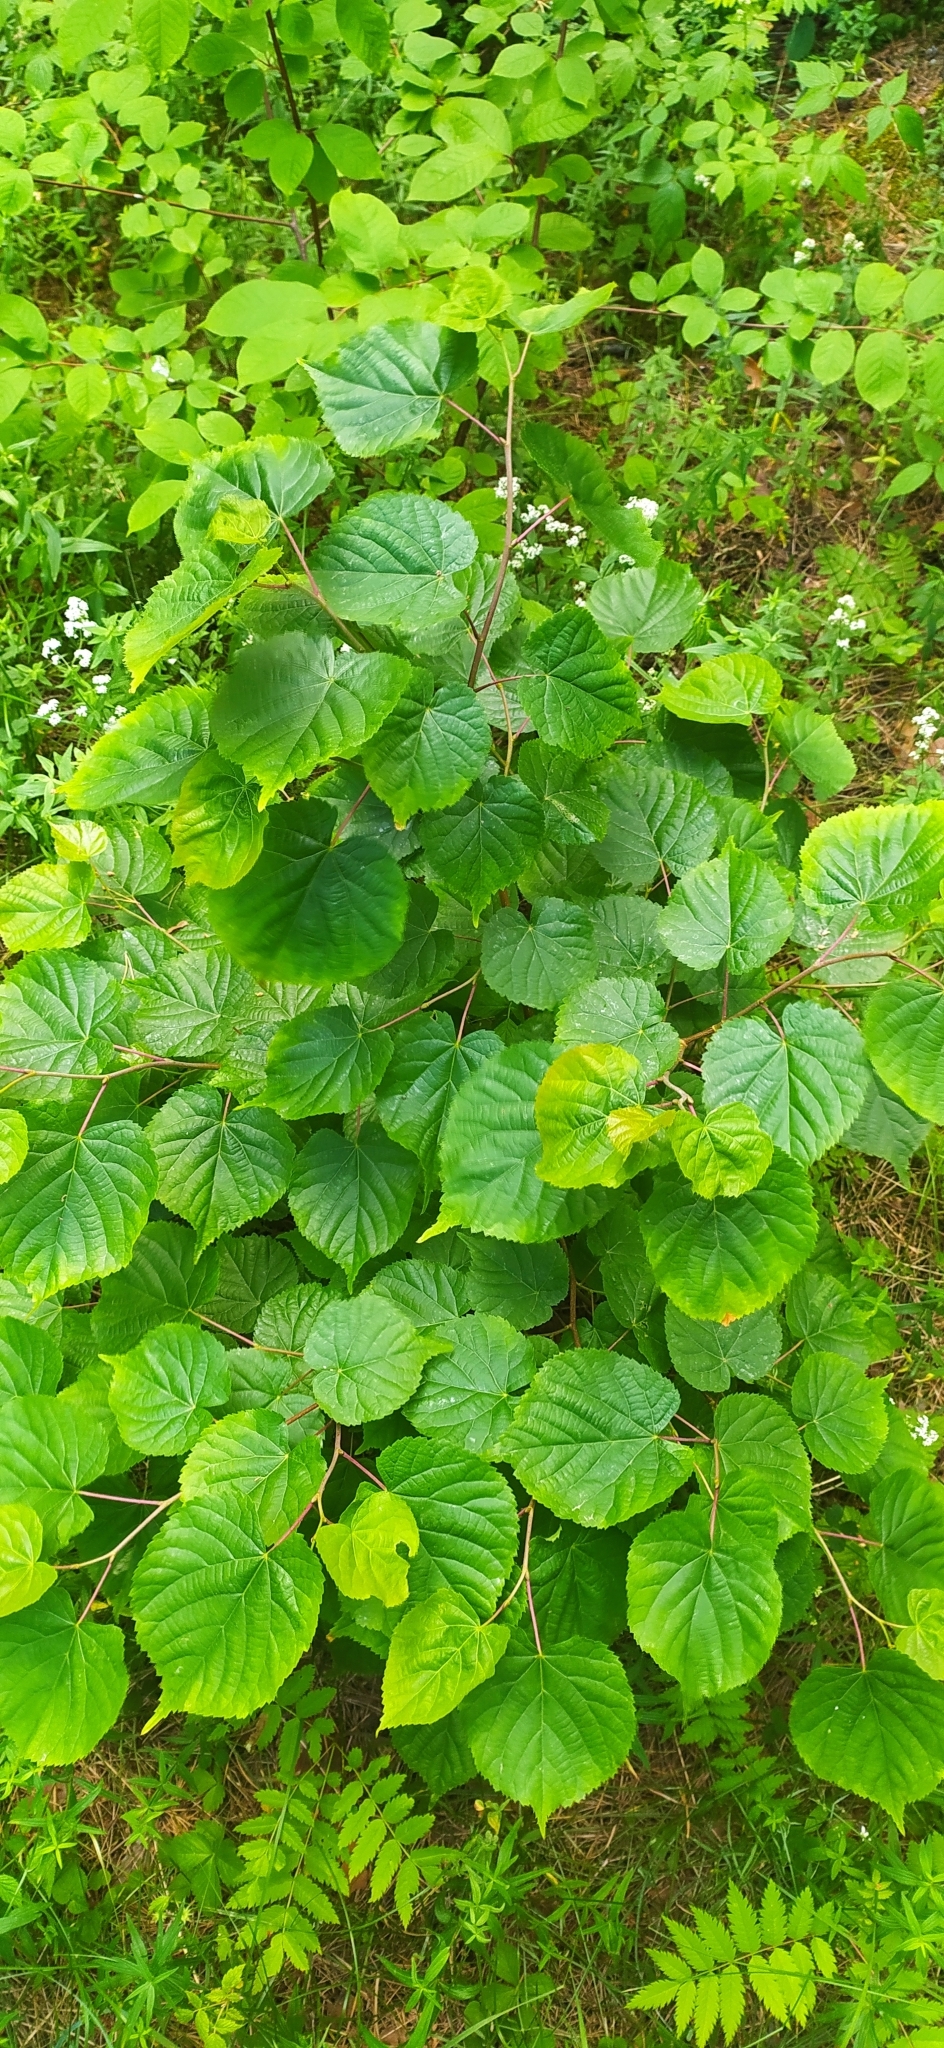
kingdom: Plantae
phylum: Tracheophyta
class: Magnoliopsida
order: Malvales
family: Malvaceae
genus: Tilia
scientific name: Tilia cordata
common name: Small-leaved lime
